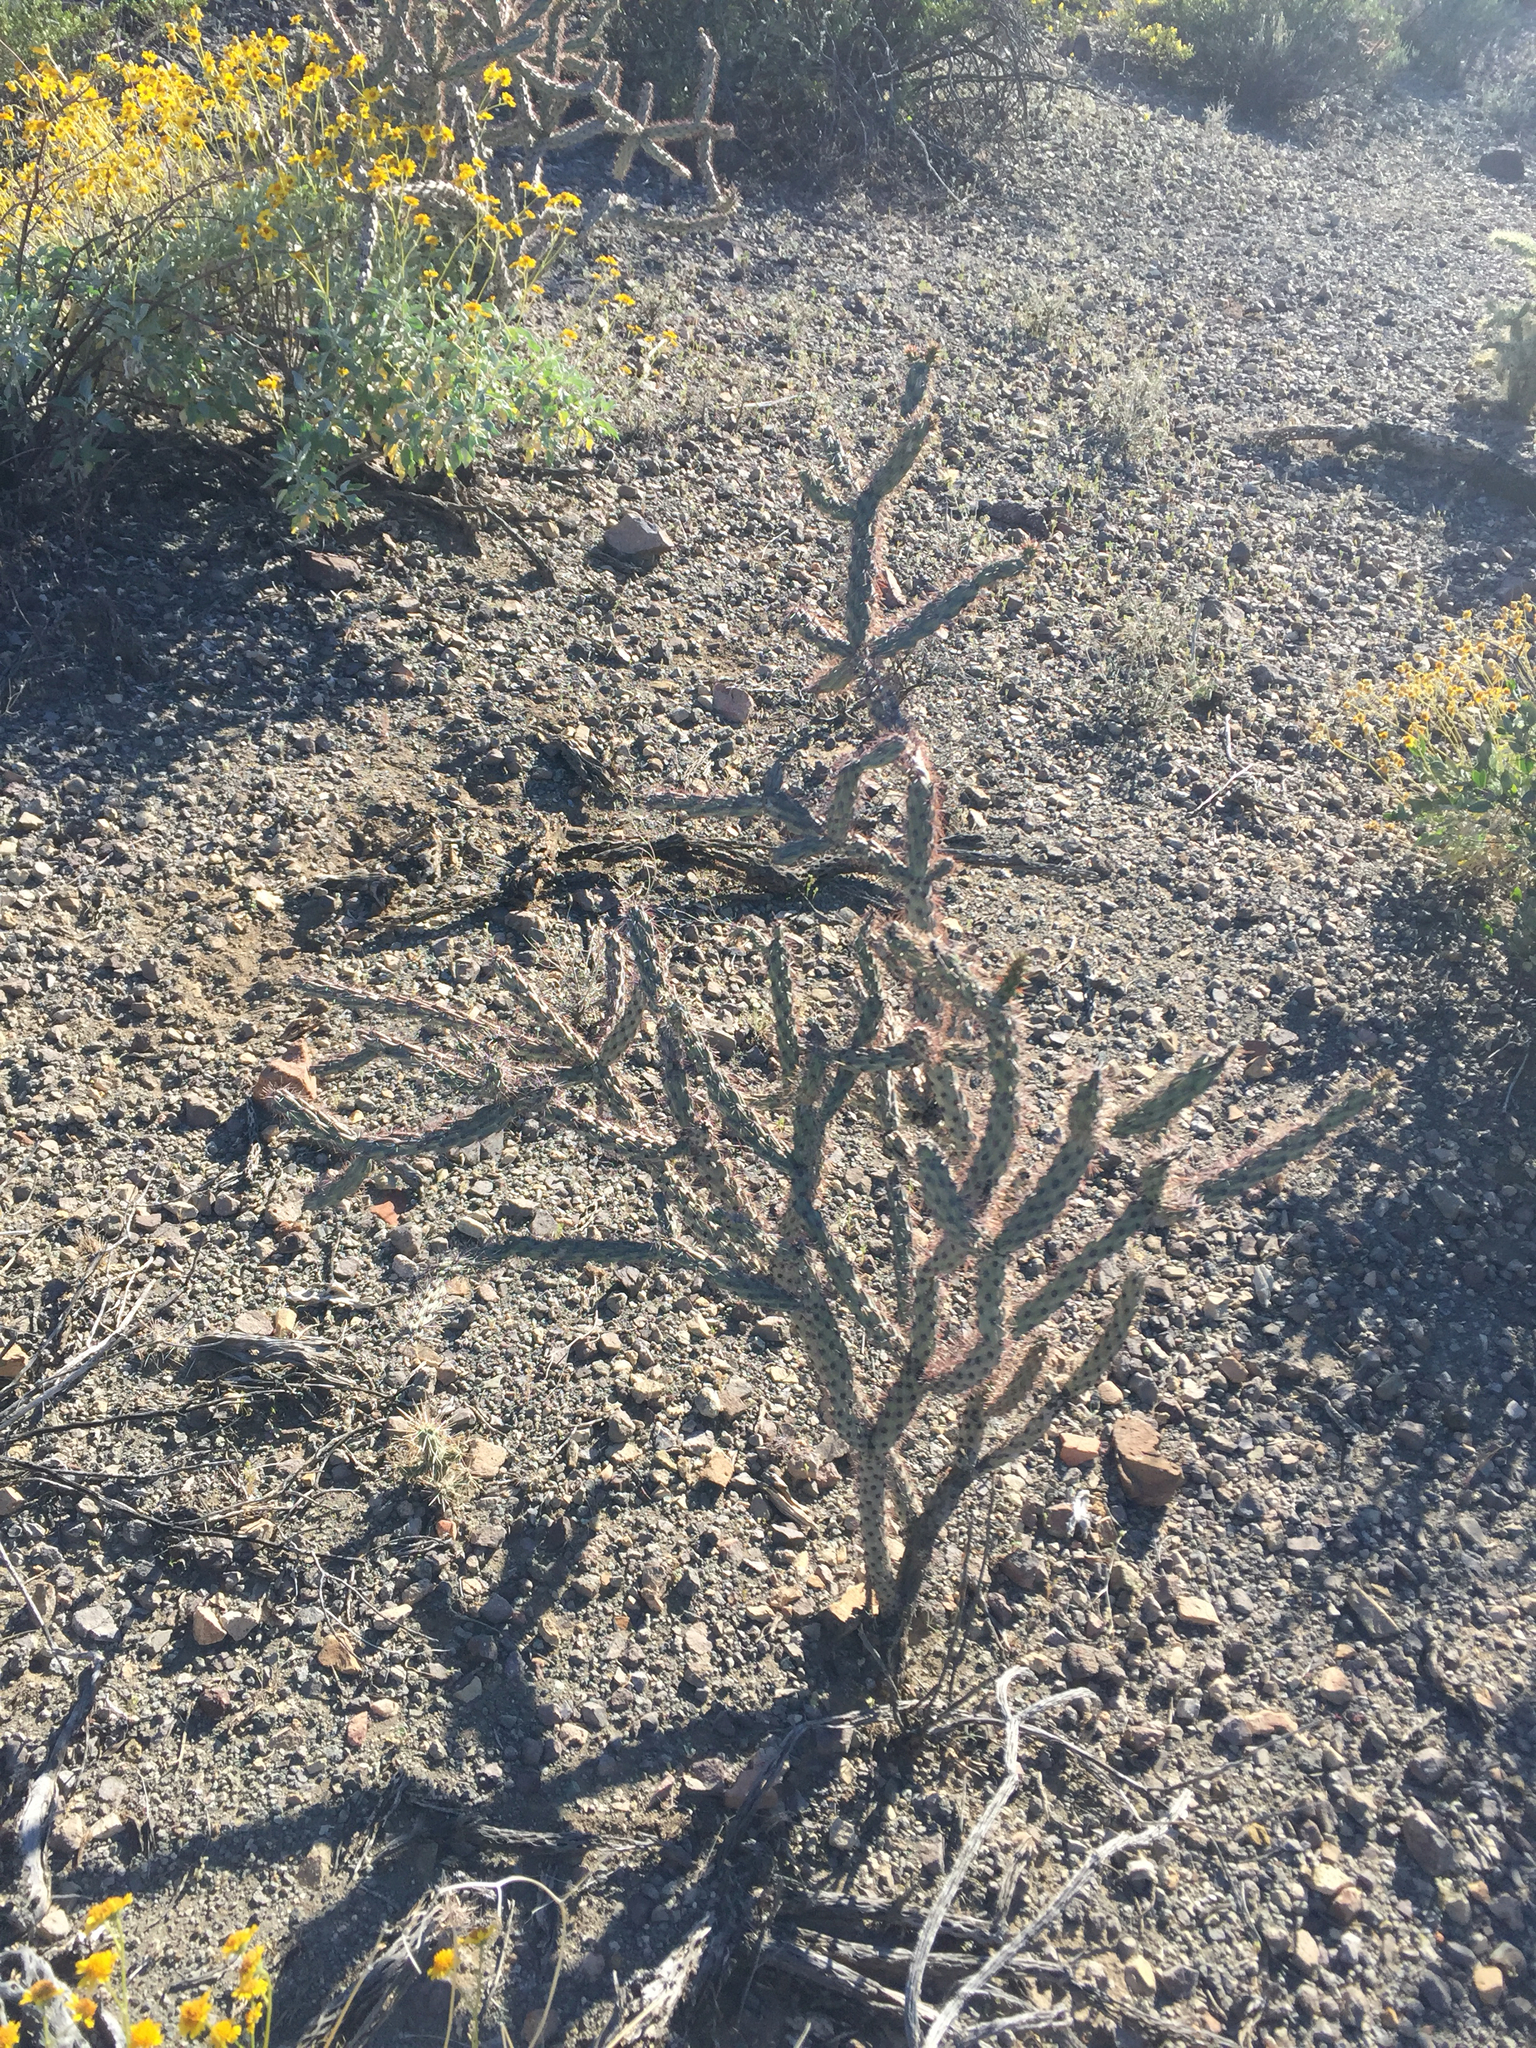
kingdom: Plantae
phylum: Tracheophyta
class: Magnoliopsida
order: Caryophyllales
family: Cactaceae
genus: Cylindropuntia
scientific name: Cylindropuntia acanthocarpa
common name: Buckhorn cholla
